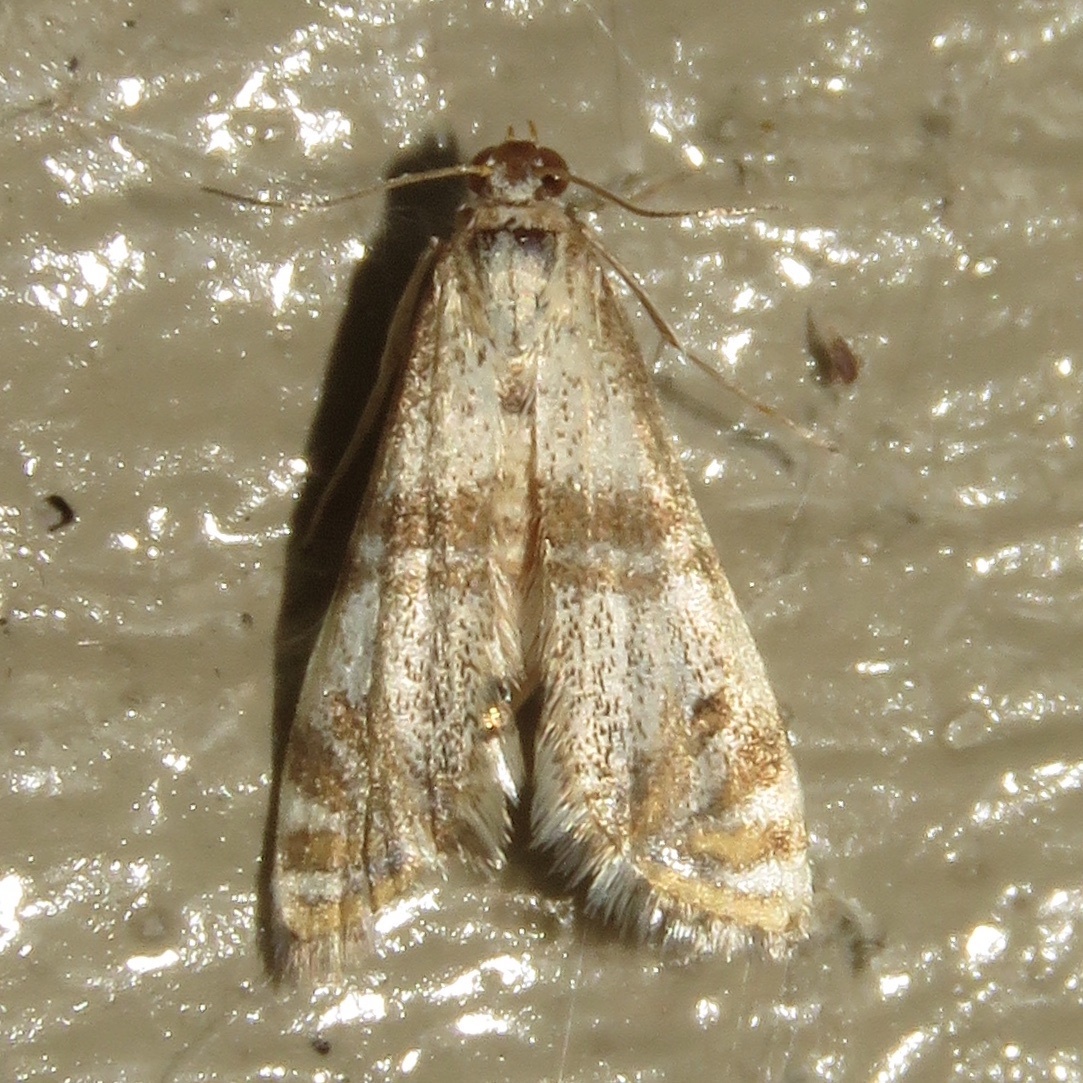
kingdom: Animalia
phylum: Arthropoda
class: Insecta
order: Lepidoptera
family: Crambidae
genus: Petrophila
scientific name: Petrophila bifascialis
